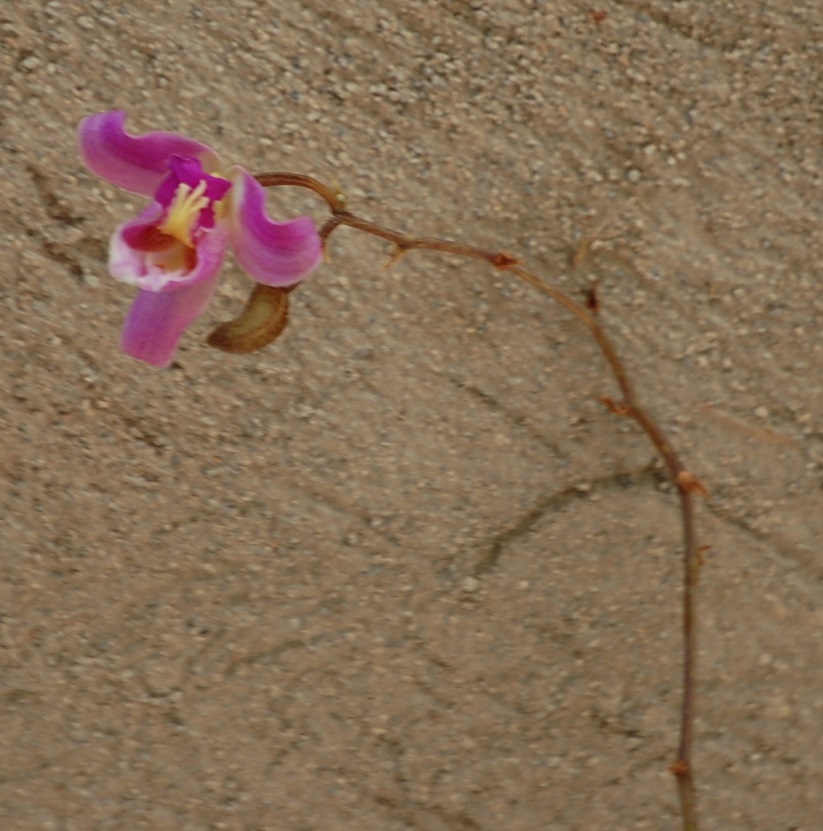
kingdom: Plantae
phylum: Tracheophyta
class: Liliopsida
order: Asparagales
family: Orchidaceae
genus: Bletia
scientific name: Bletia purpurea
